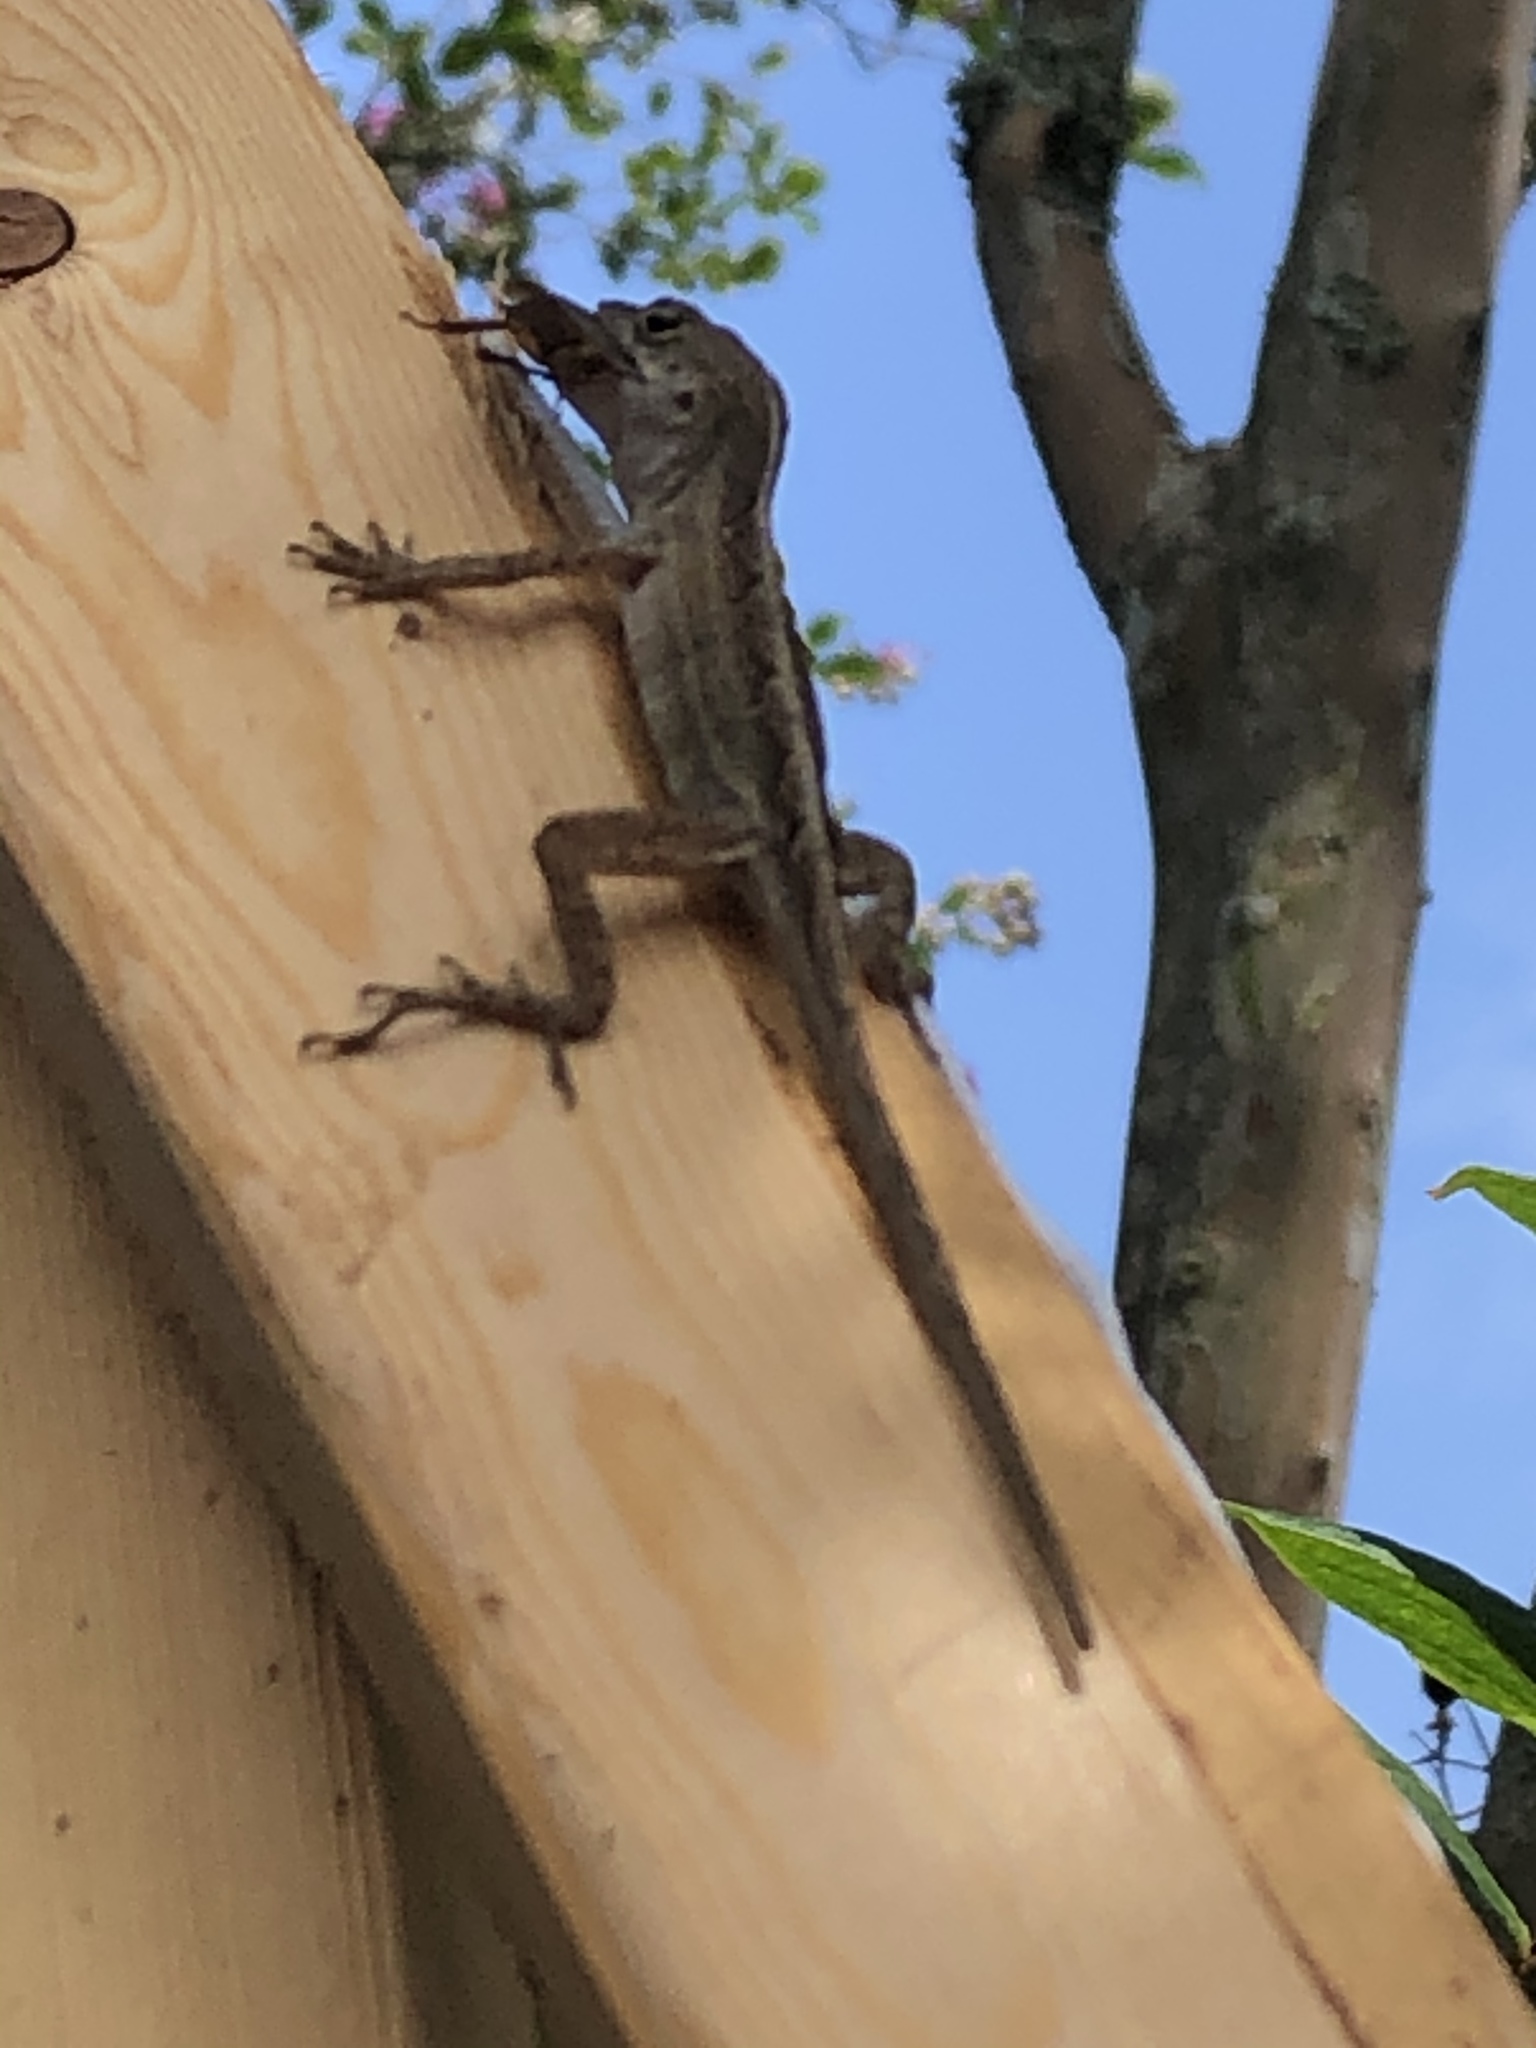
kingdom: Animalia
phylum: Chordata
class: Squamata
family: Dactyloidae
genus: Anolis
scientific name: Anolis sagrei
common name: Brown anole
